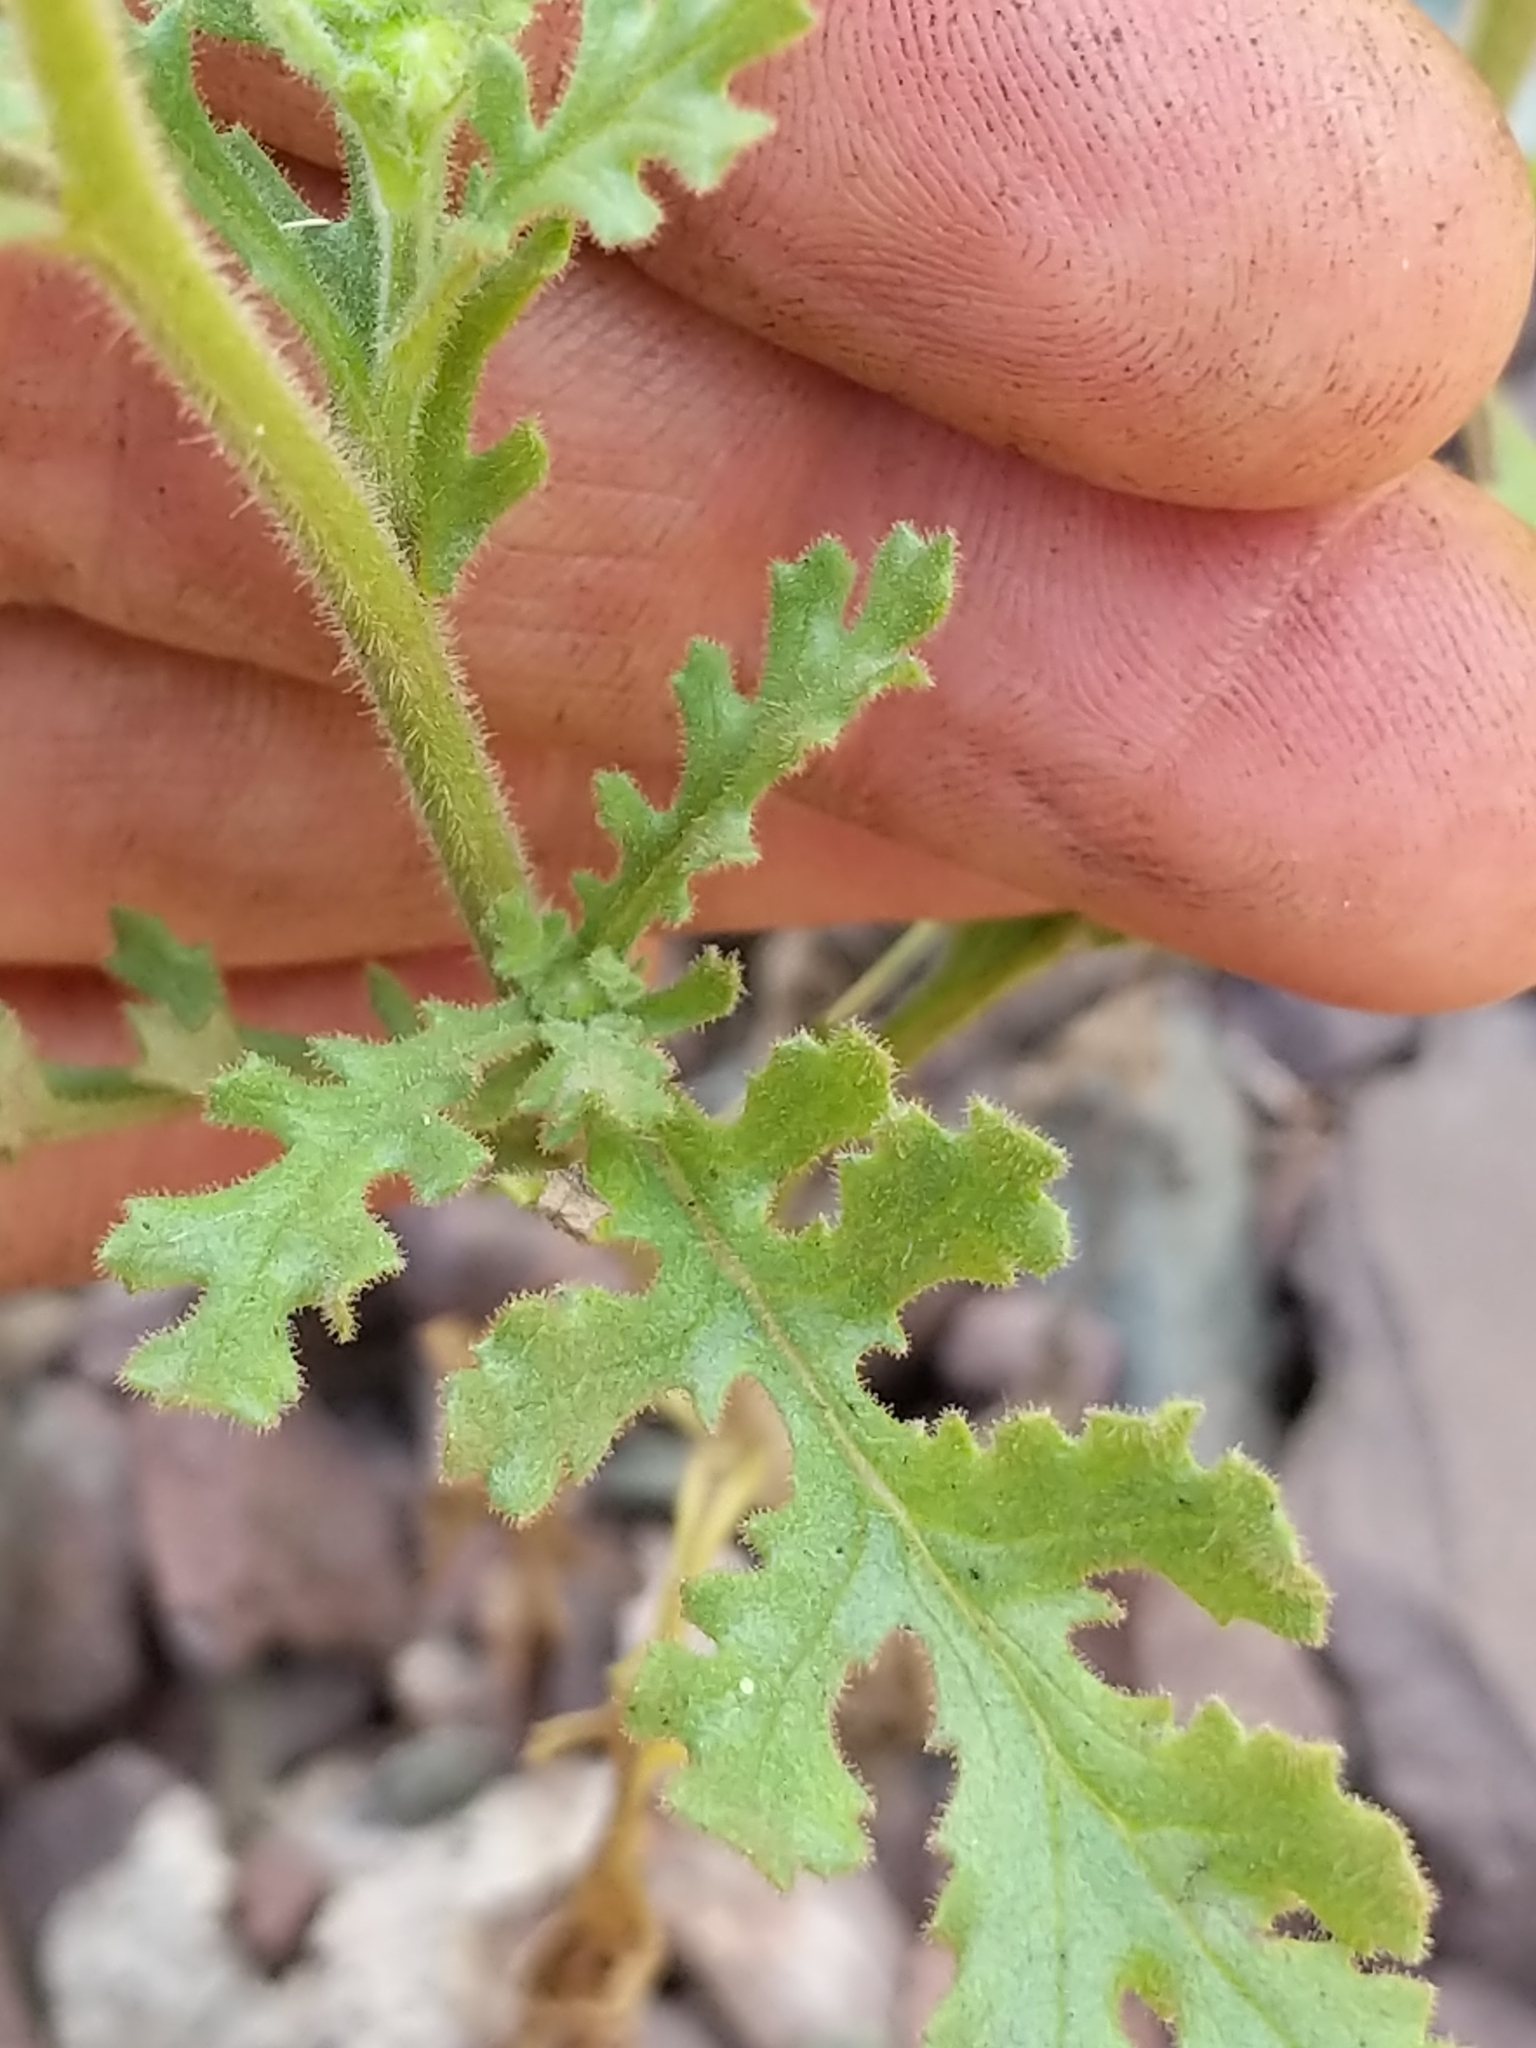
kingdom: Plantae
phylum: Tracheophyta
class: Magnoliopsida
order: Asterales
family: Asteraceae
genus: Senecio
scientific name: Senecio viscosus
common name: Sticky groundsel
